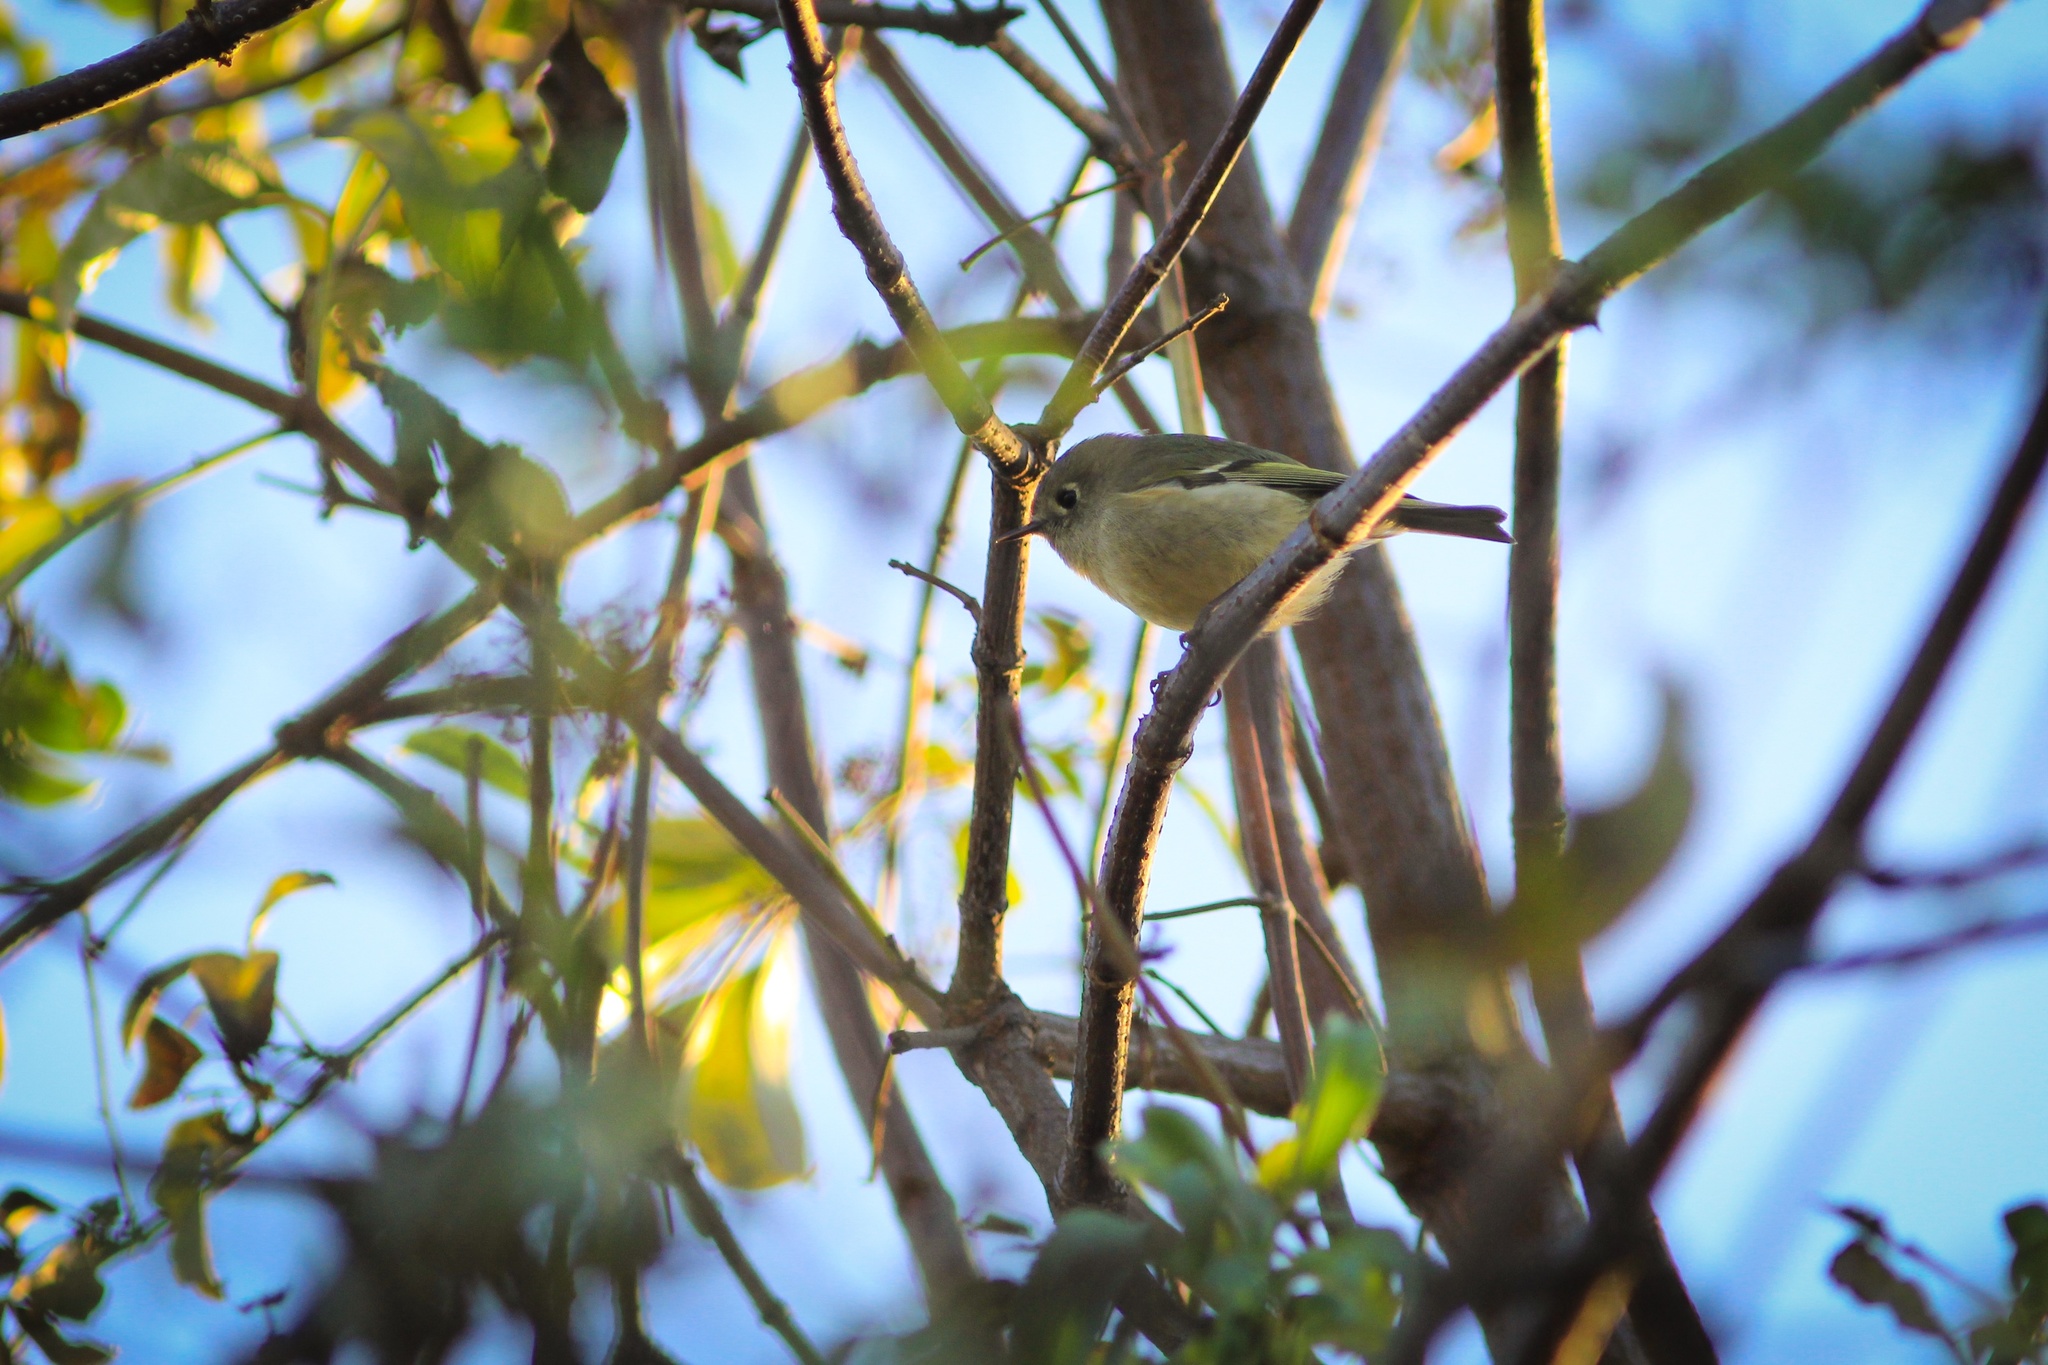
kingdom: Animalia
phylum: Chordata
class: Aves
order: Passeriformes
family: Regulidae
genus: Regulus
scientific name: Regulus calendula
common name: Ruby-crowned kinglet
